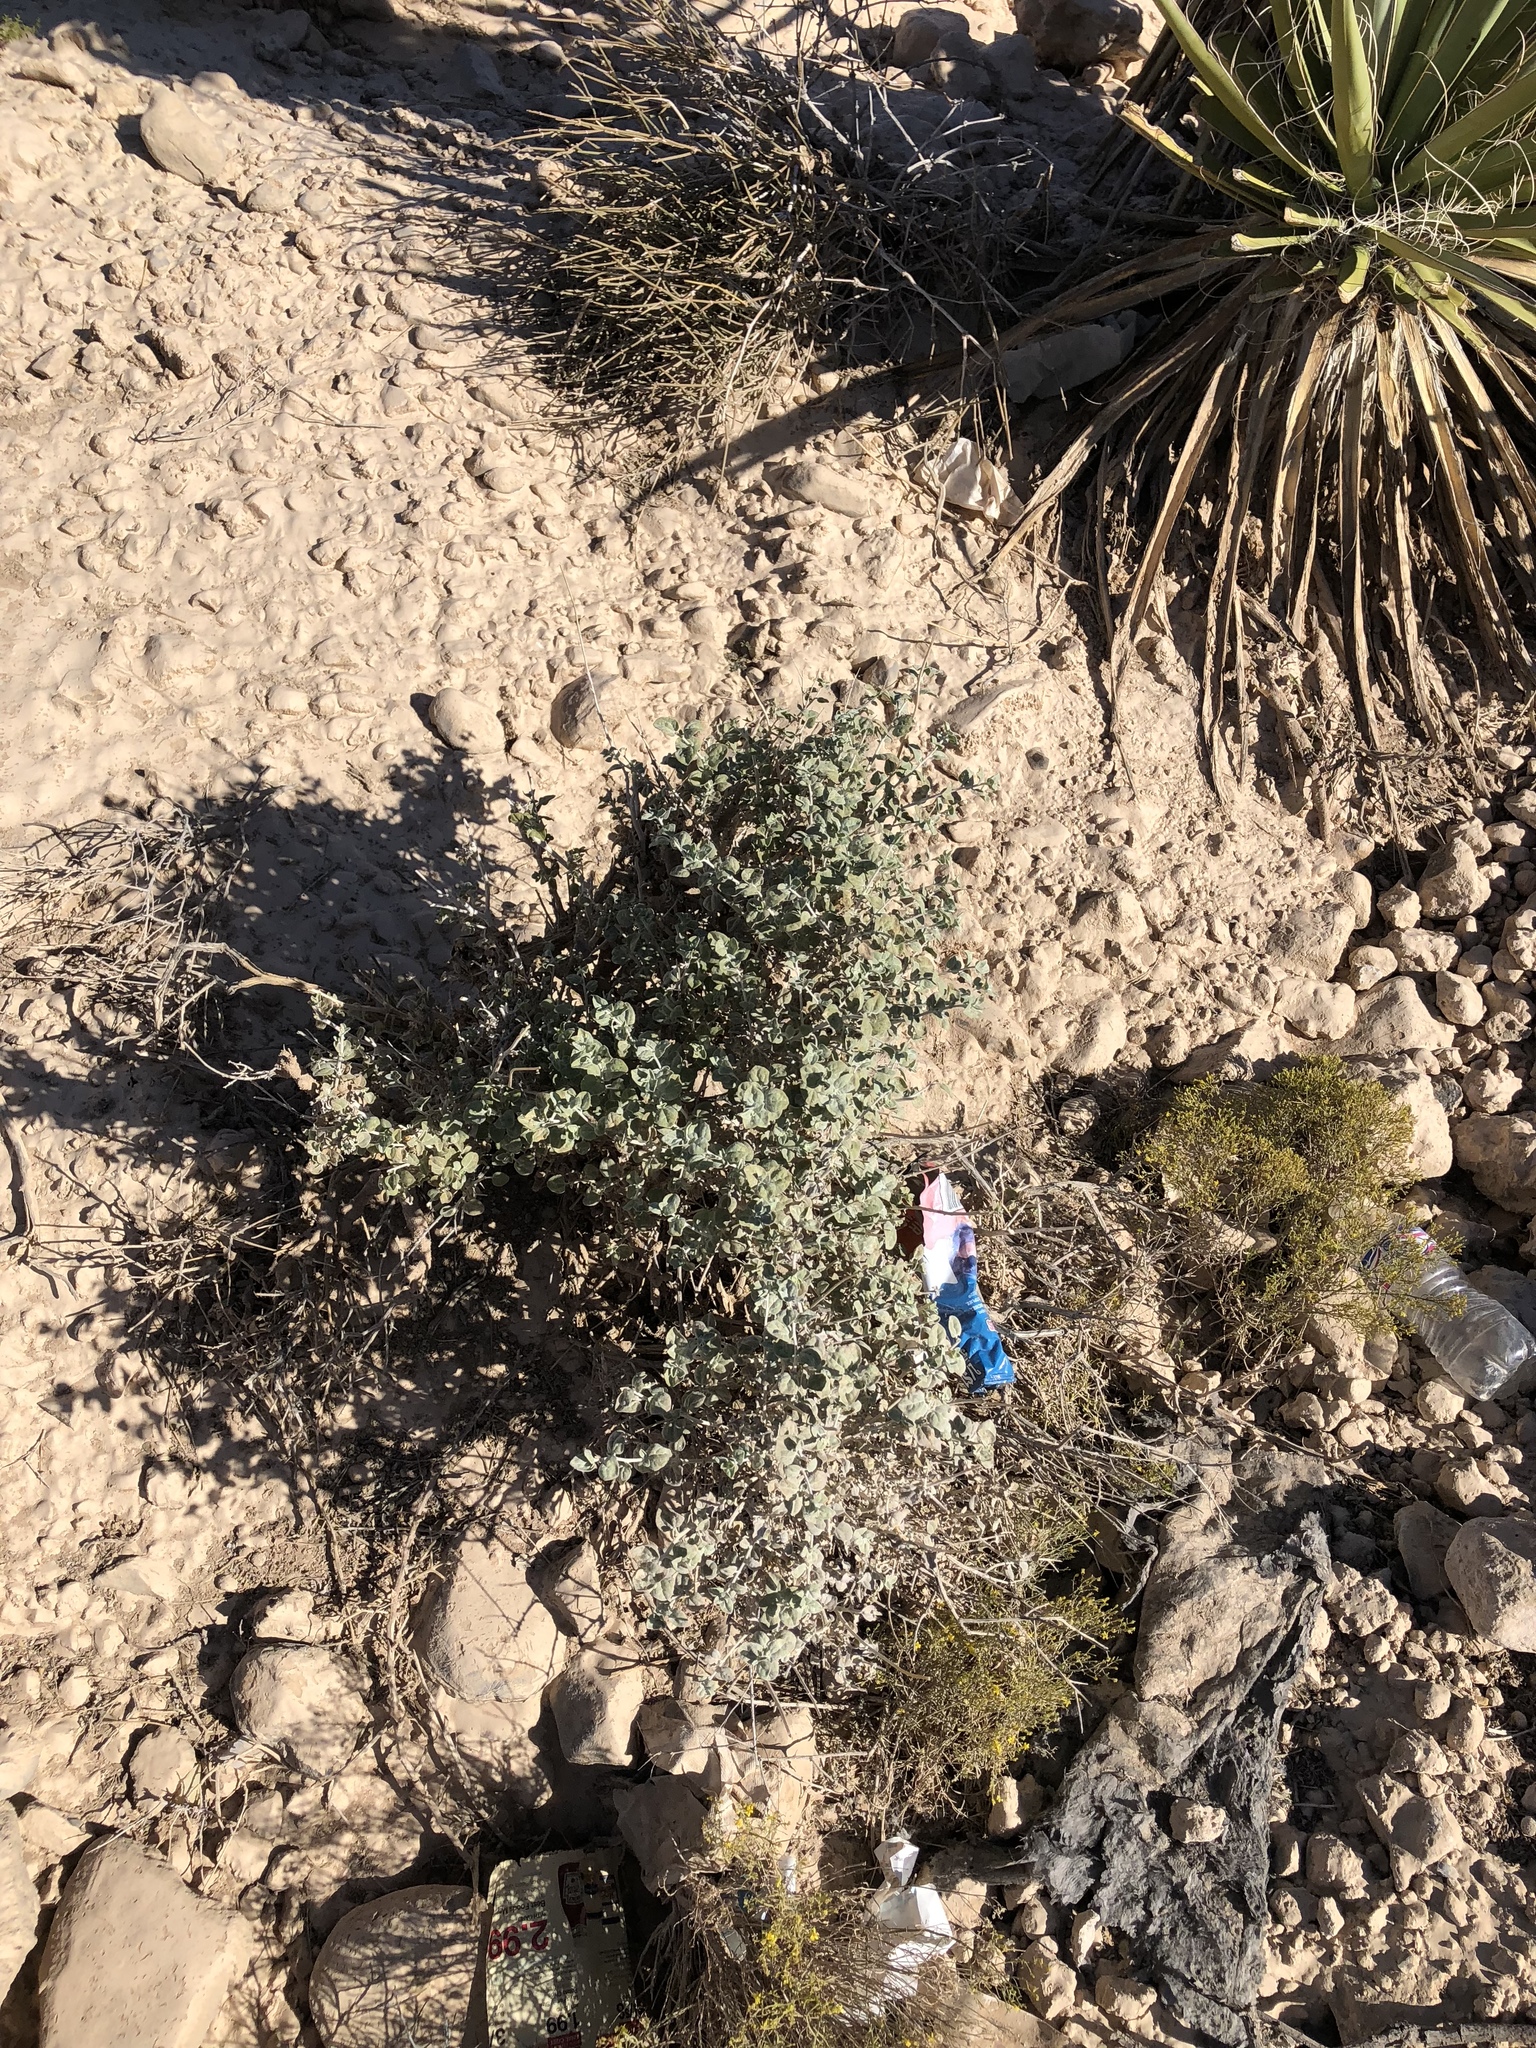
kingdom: Plantae
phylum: Tracheophyta
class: Magnoliopsida
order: Asterales
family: Asteraceae
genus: Brickellia
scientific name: Brickellia incana
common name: Woolly brickelbush
